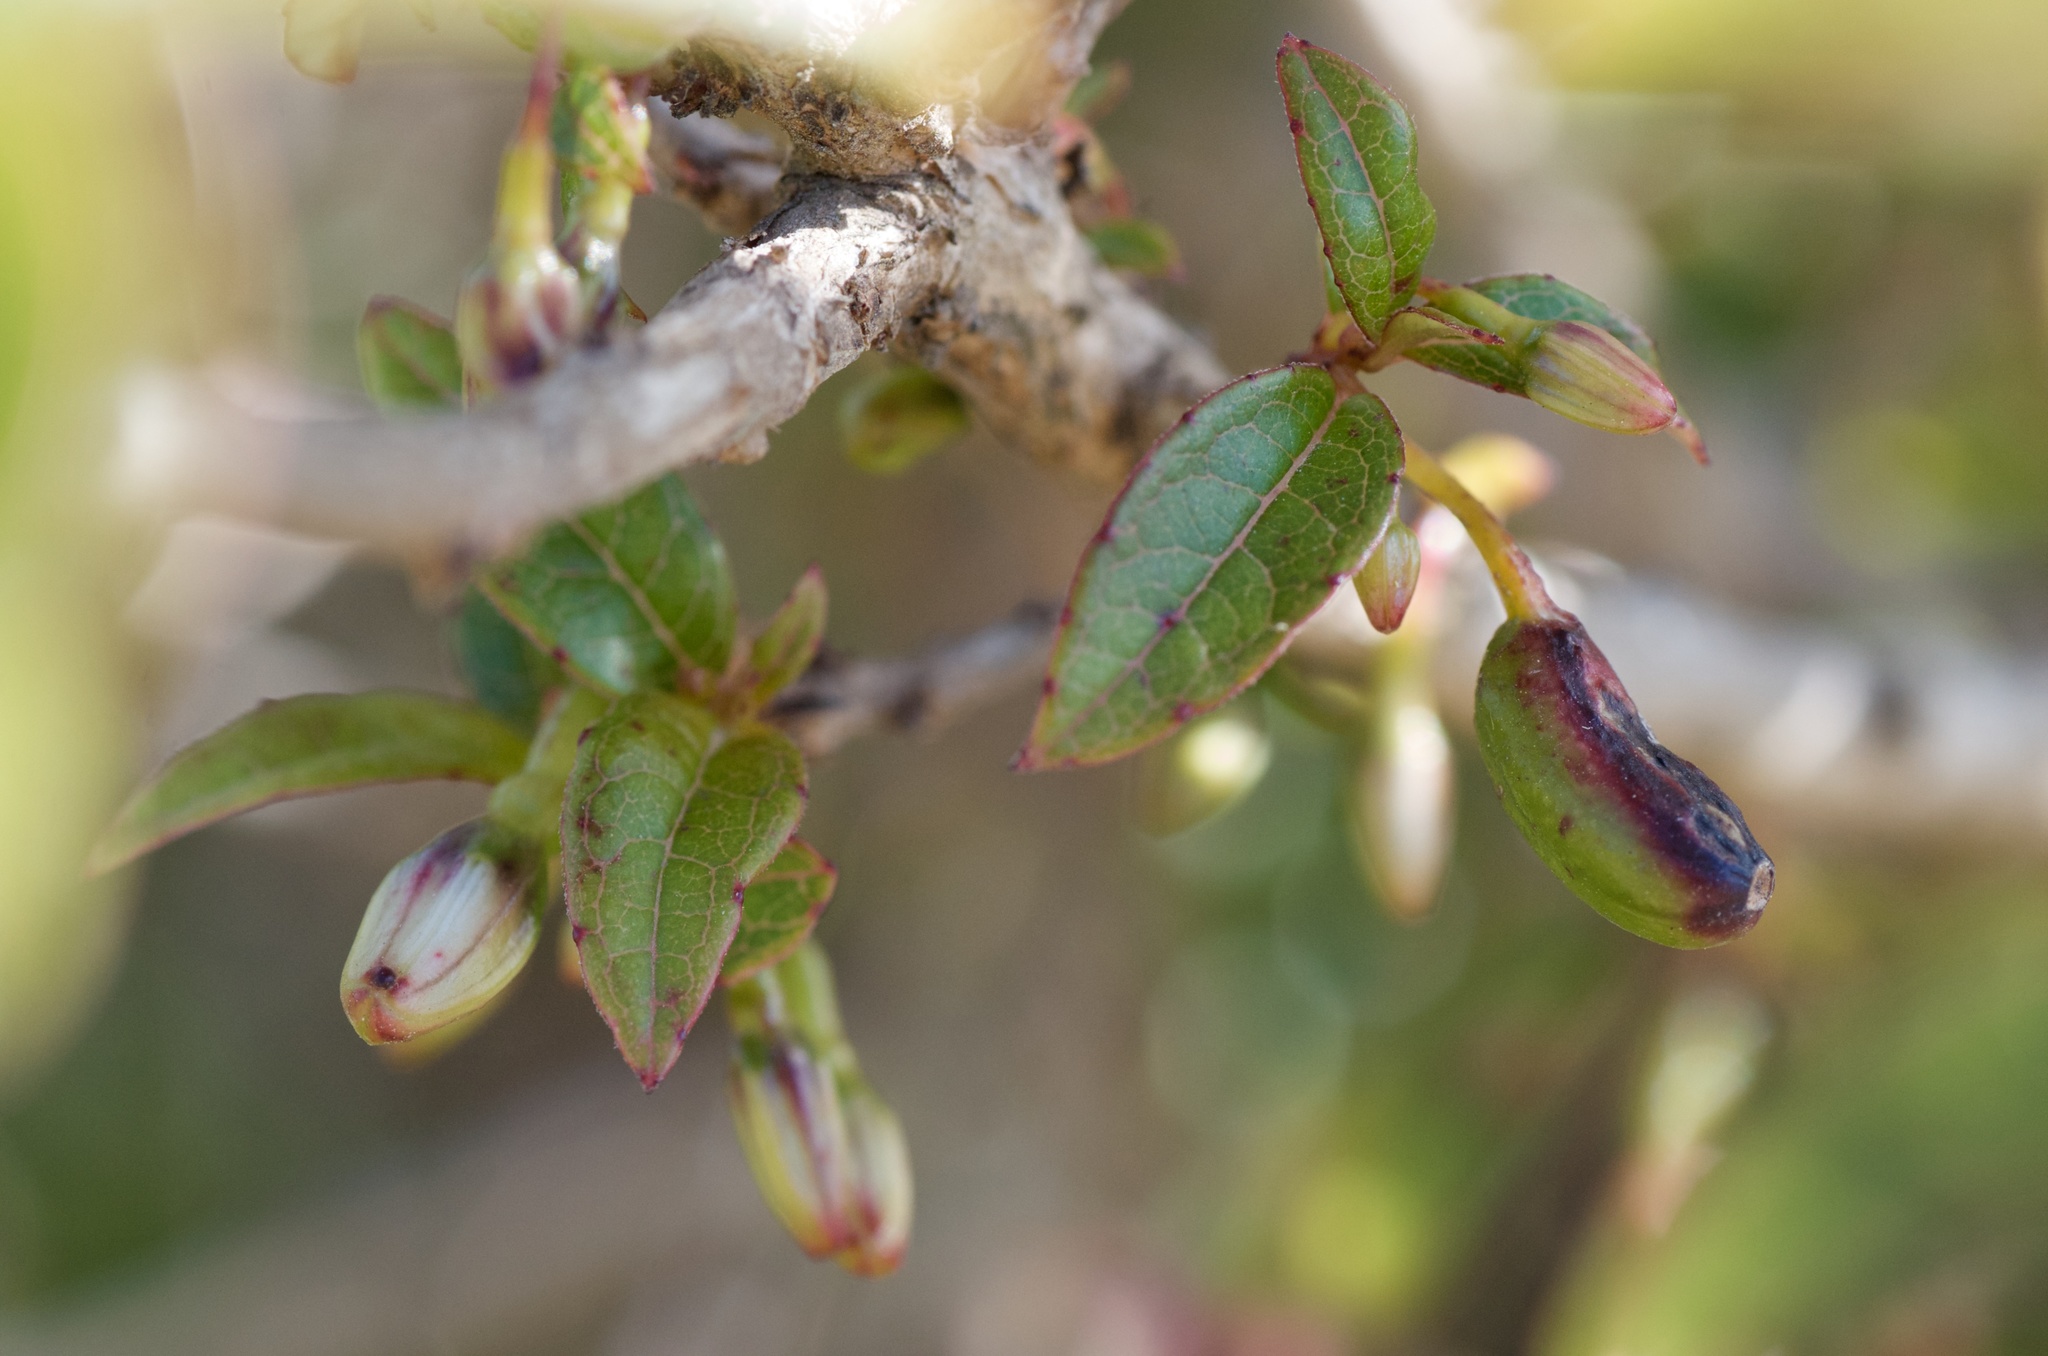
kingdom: Plantae
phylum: Tracheophyta
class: Magnoliopsida
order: Myrtales
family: Onagraceae
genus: Fuchsia
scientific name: Fuchsia excorticata
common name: Tree fuchsia
